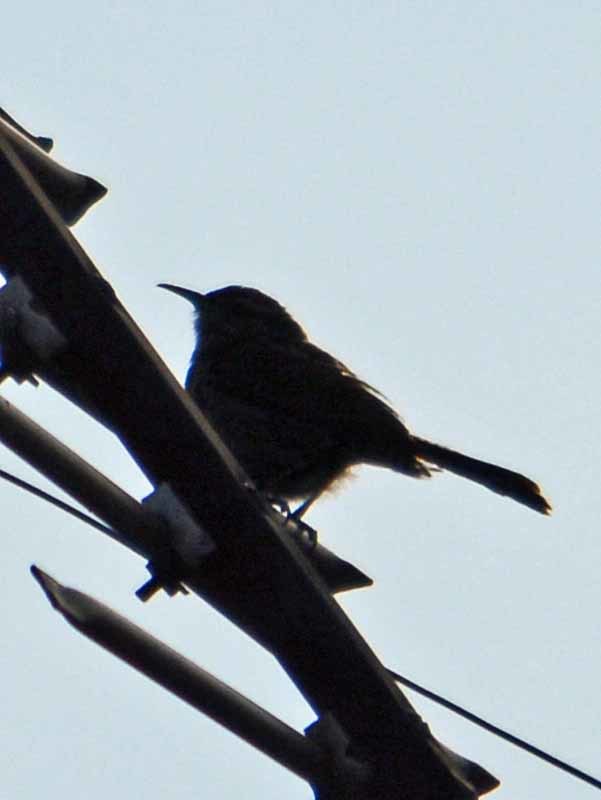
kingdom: Animalia
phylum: Chordata
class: Aves
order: Passeriformes
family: Troglodytidae
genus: Thryomanes
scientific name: Thryomanes bewickii
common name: Bewick's wren
